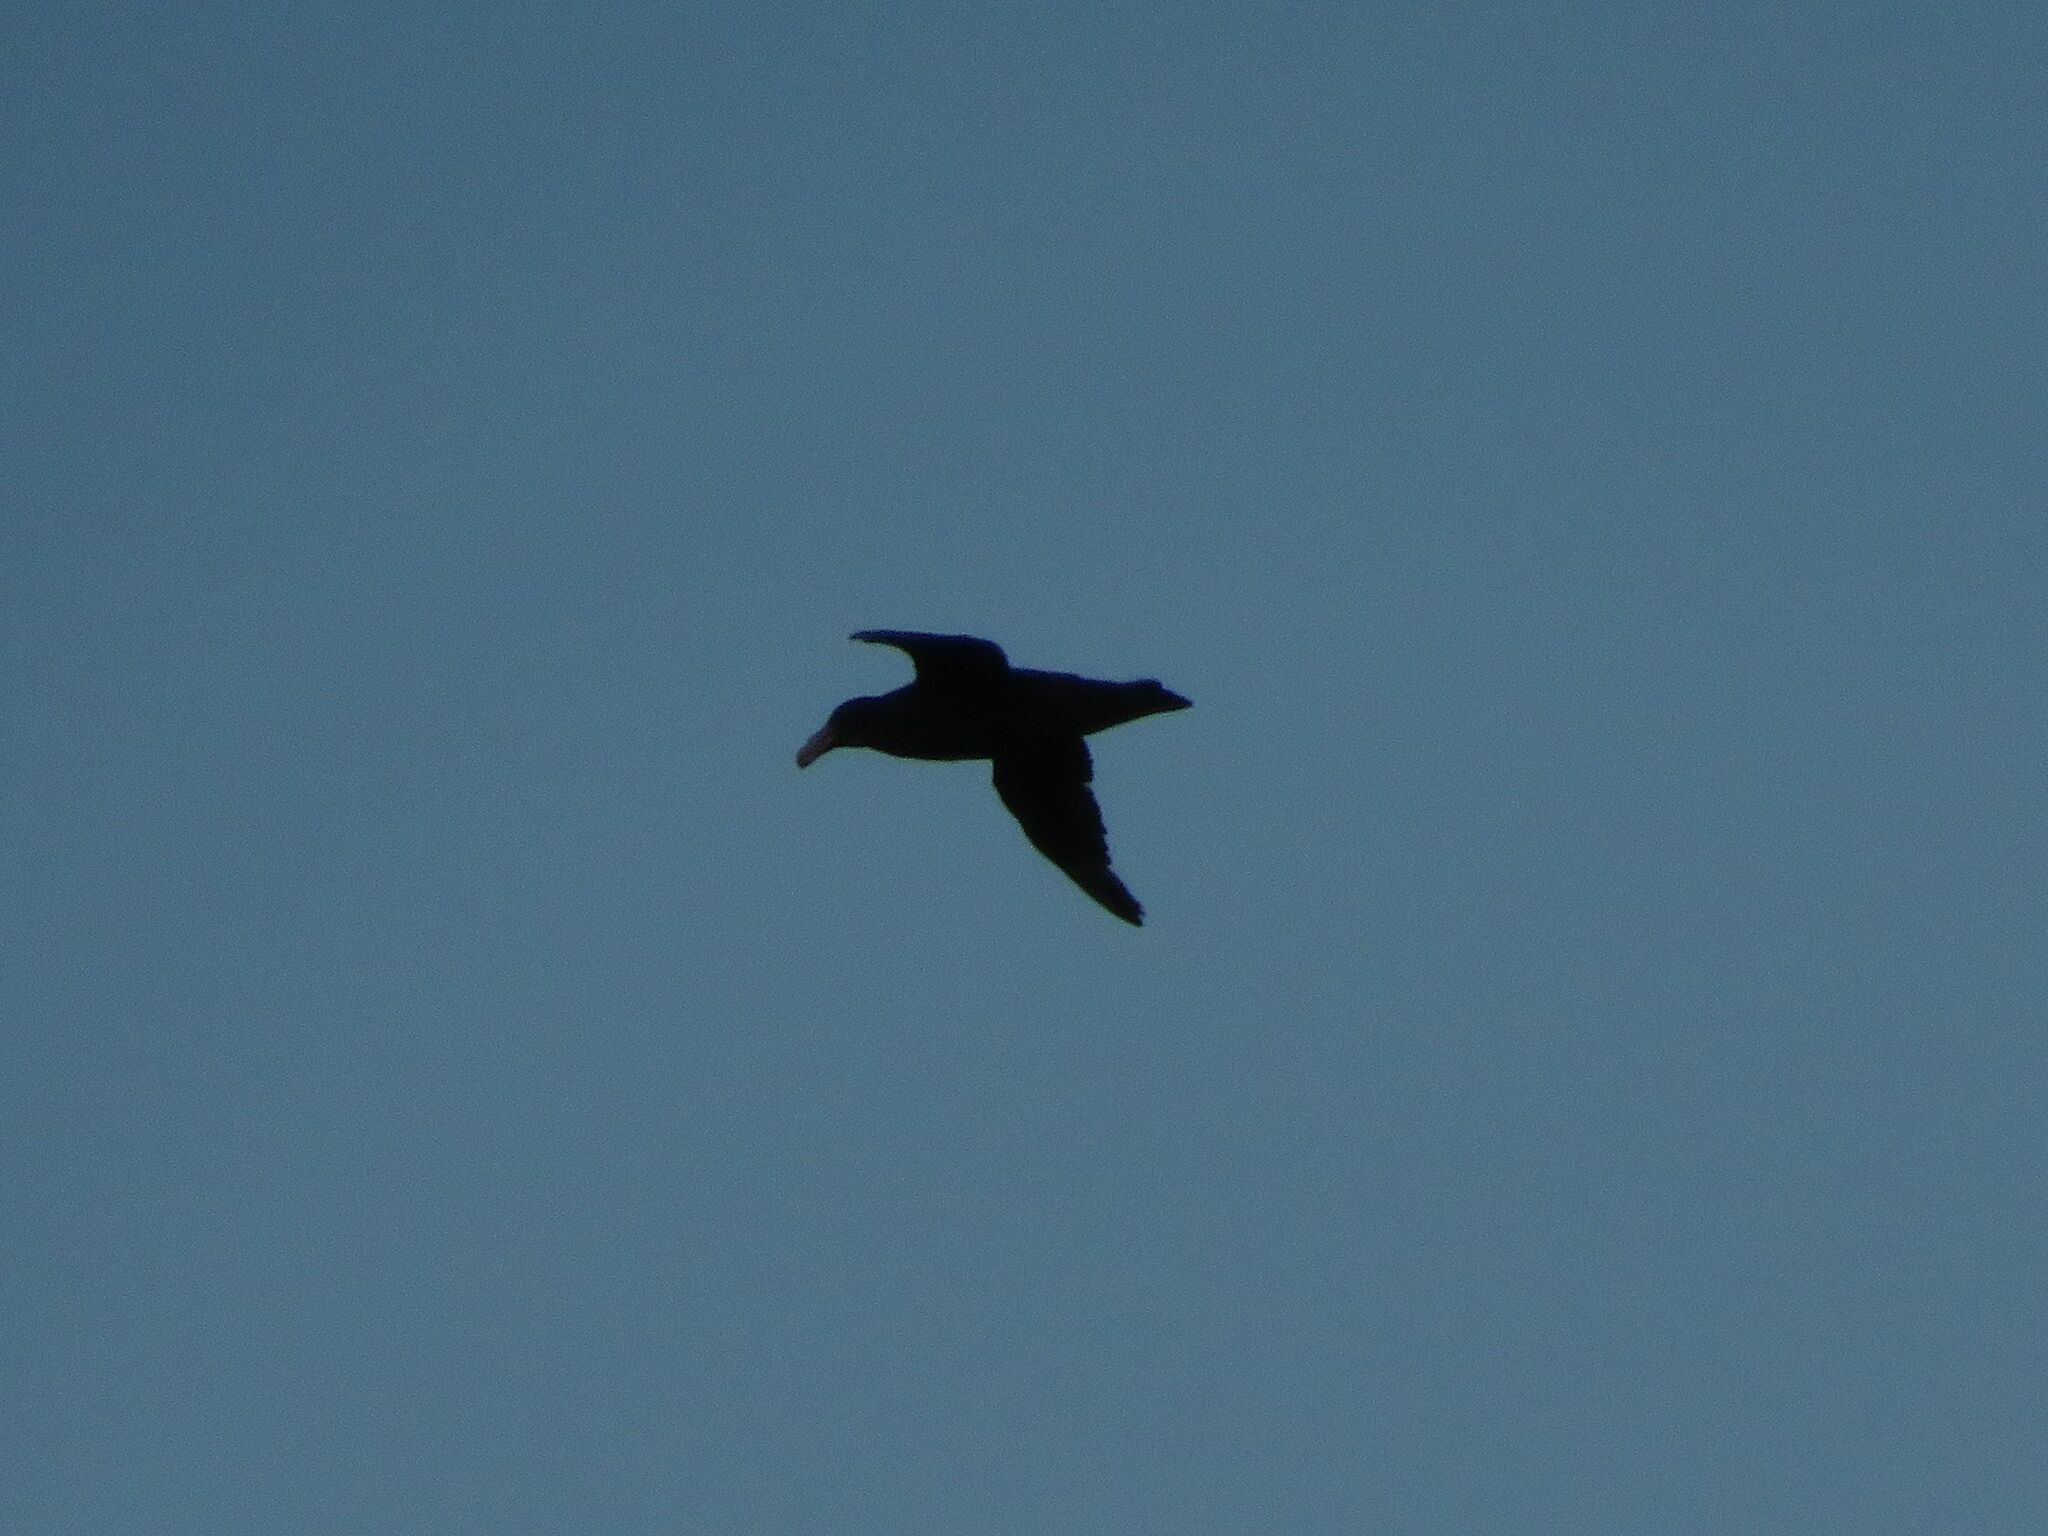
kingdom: Animalia
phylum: Chordata
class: Aves
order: Procellariiformes
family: Procellariidae
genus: Macronectes
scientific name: Macronectes giganteus
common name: Southern giant petrel
